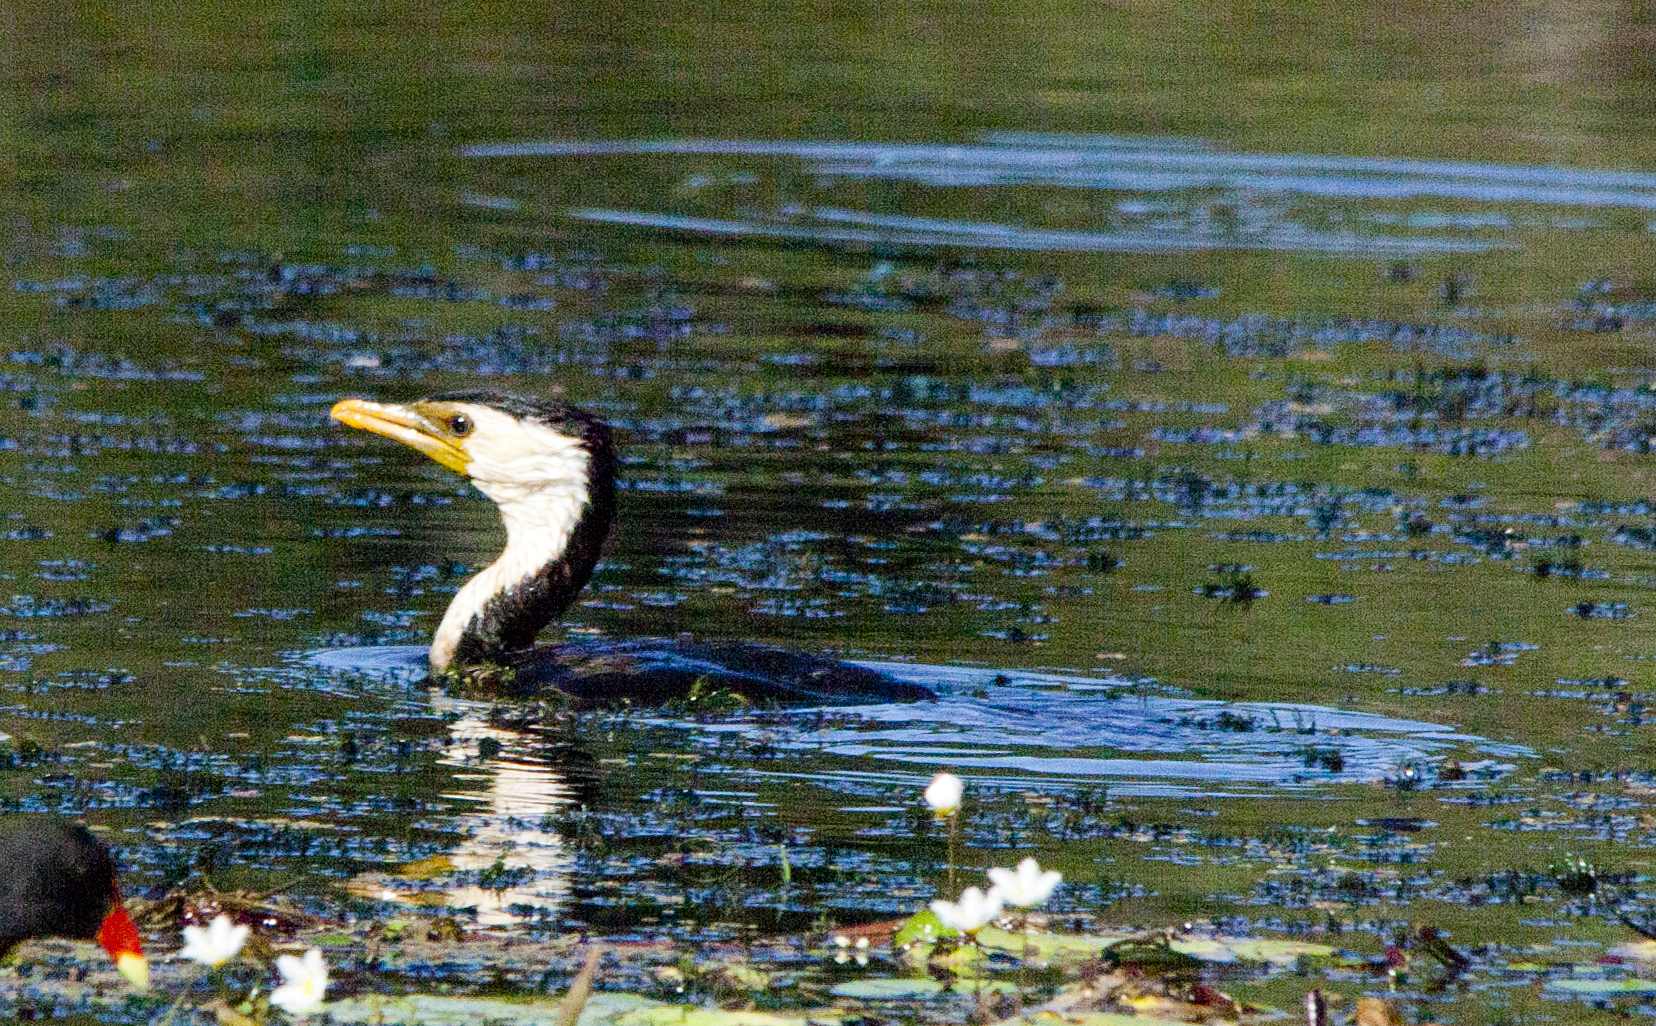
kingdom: Animalia
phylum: Chordata
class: Aves
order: Suliformes
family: Phalacrocoracidae
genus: Microcarbo
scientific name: Microcarbo melanoleucos
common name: Little pied cormorant
